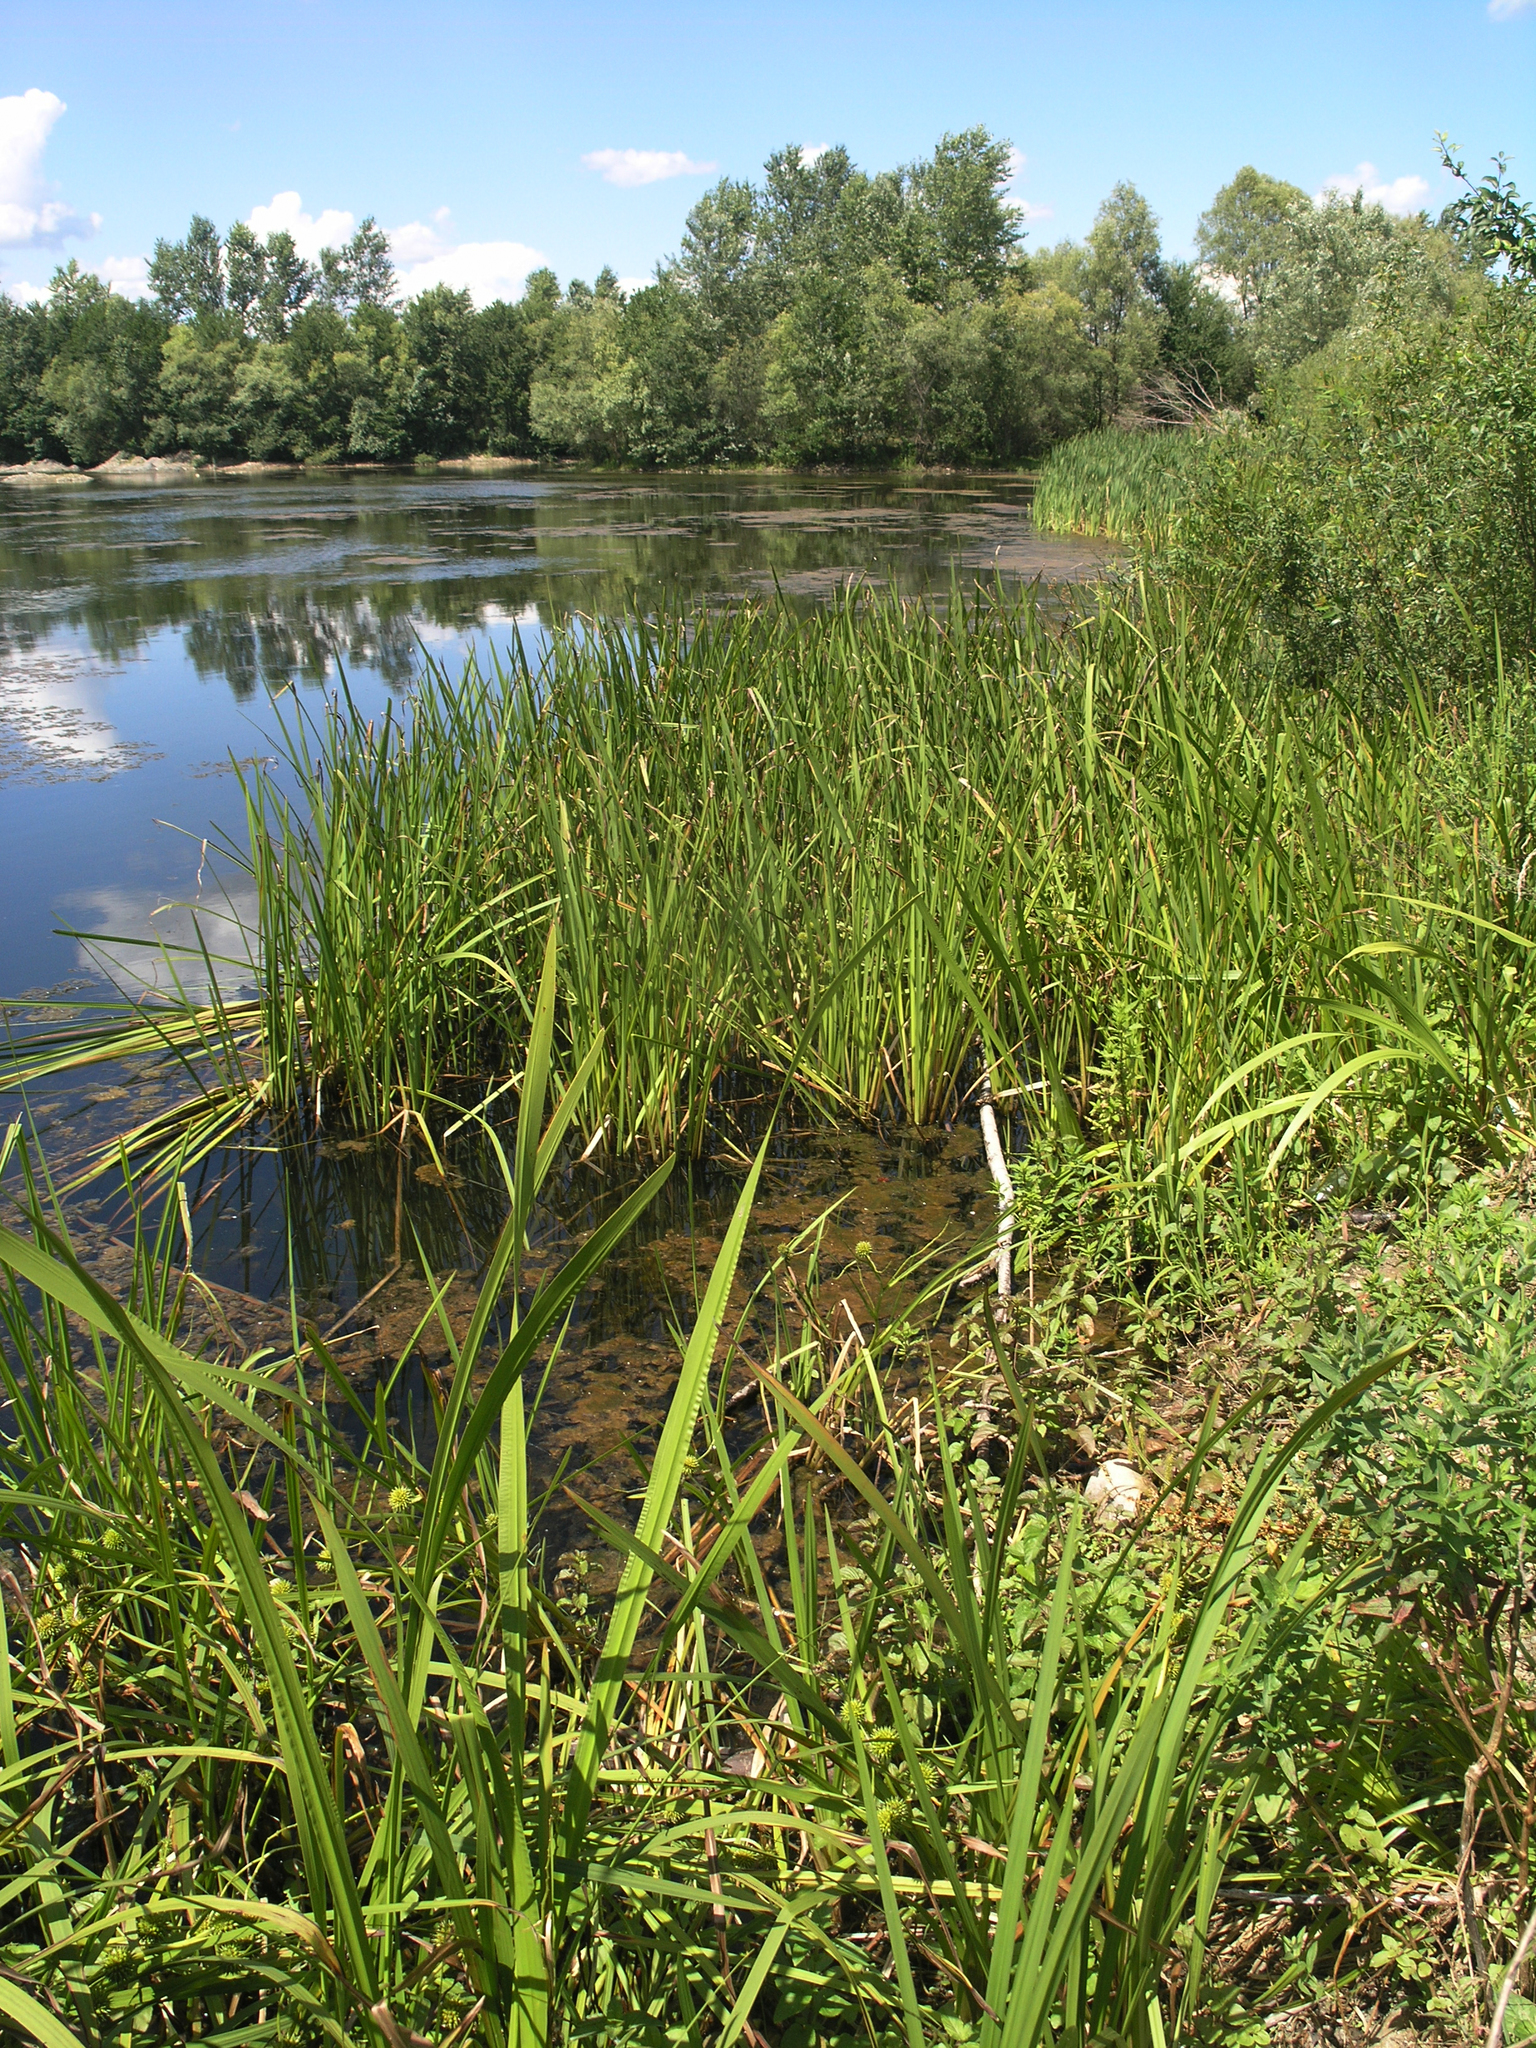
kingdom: Plantae
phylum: Tracheophyta
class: Liliopsida
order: Poales
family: Typhaceae
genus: Sparganium
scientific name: Sparganium erectum
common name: Branched bur-reed
